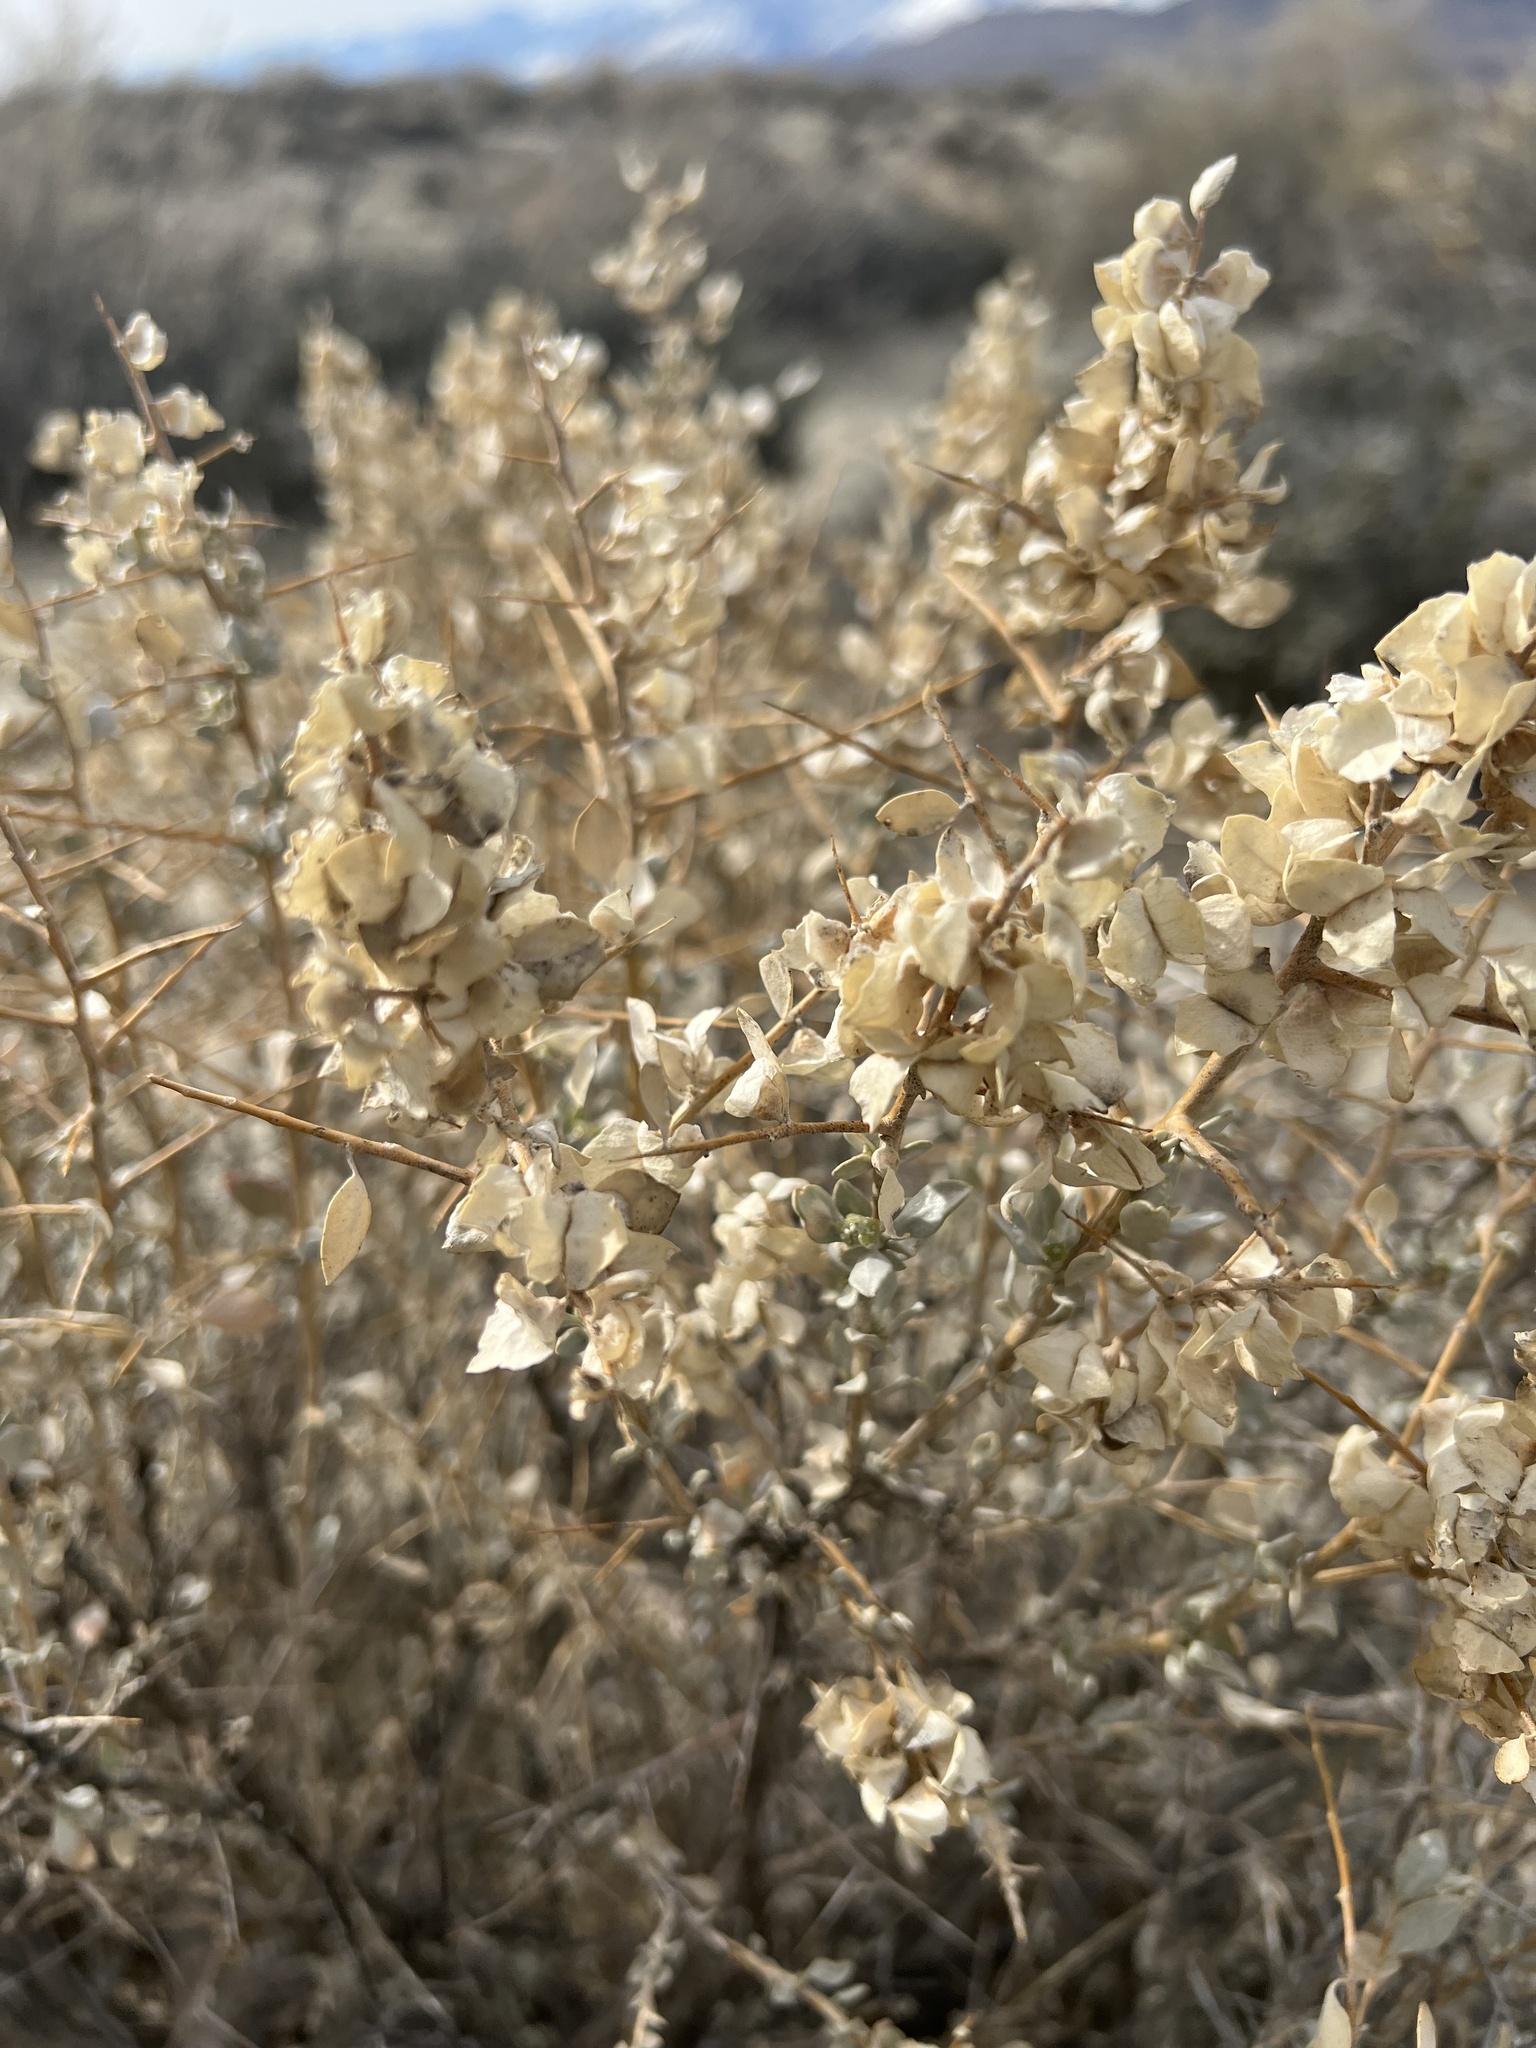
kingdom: Plantae
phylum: Tracheophyta
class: Magnoliopsida
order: Caryophyllales
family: Amaranthaceae
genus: Atriplex
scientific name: Atriplex confertifolia
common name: Shadscale
